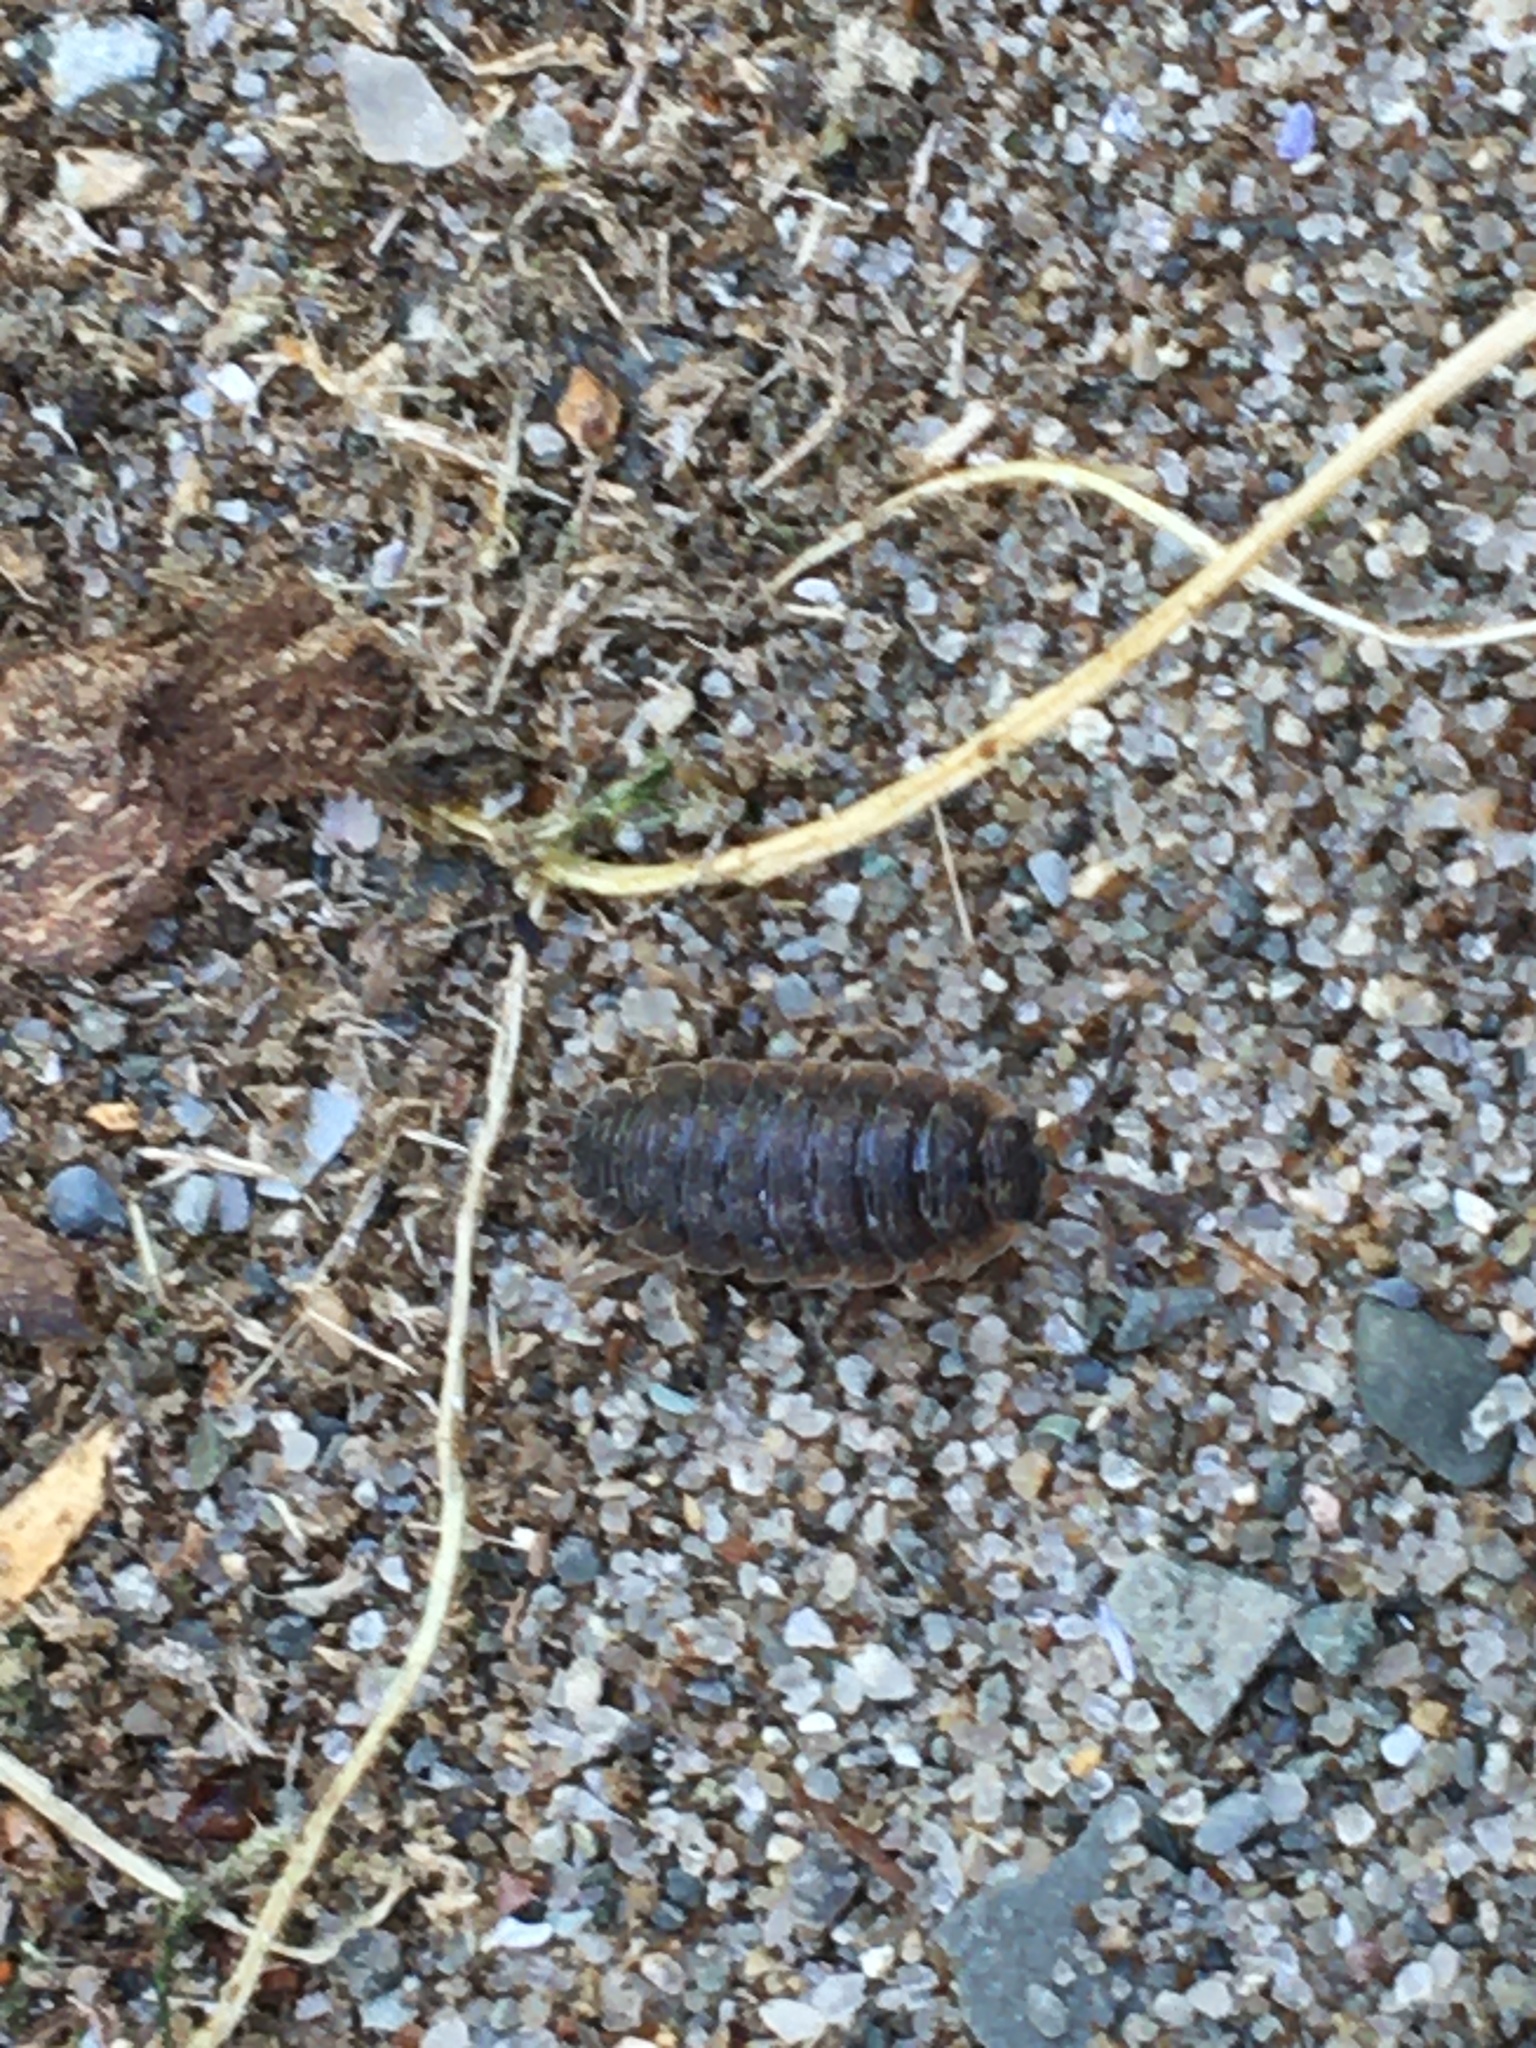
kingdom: Animalia
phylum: Arthropoda
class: Malacostraca
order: Isopoda
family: Porcellionidae
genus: Porcellio
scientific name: Porcellio scaber
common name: Common rough woodlouse
